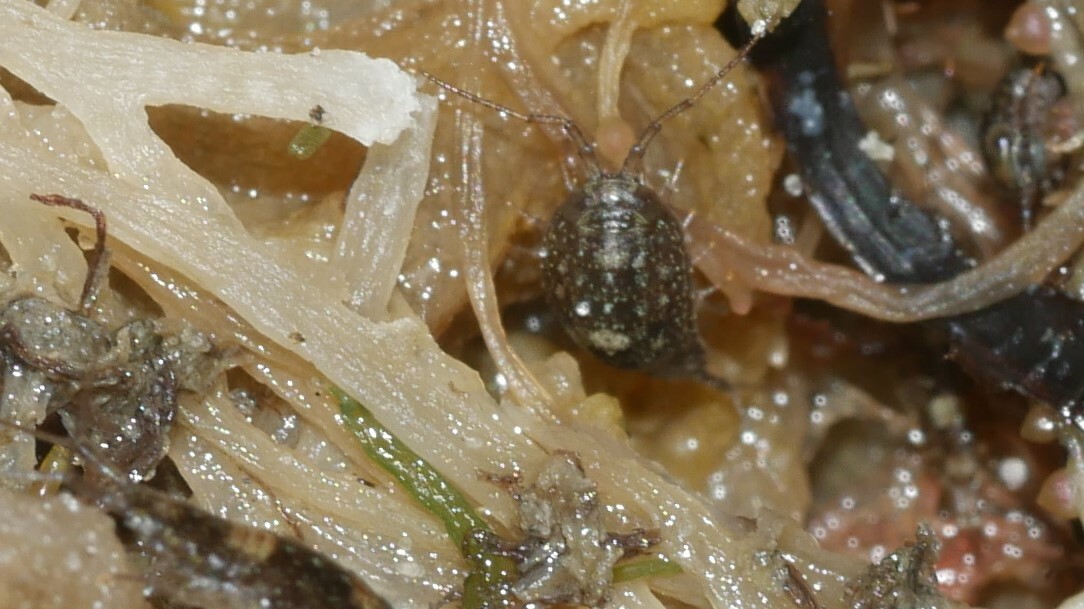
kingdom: Animalia
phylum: Arthropoda
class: Malacostraca
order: Isopoda
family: Ligiidae
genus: Ligia
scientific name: Ligia exotica
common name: Wharf roach
